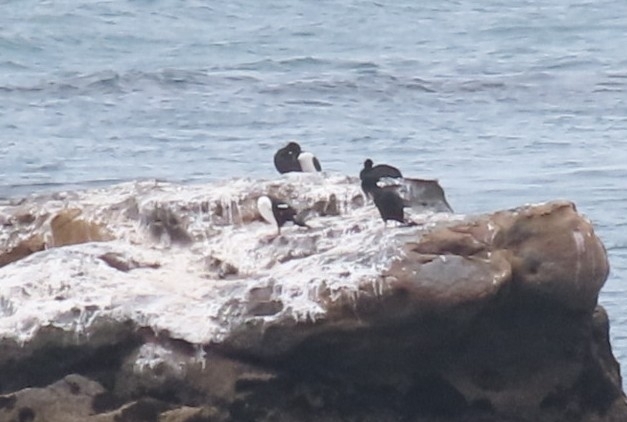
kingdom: Animalia
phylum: Chordata
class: Aves
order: Suliformes
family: Phalacrocoracidae
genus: Leucocarbo
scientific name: Leucocarbo chalconotus
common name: Stewart shag
